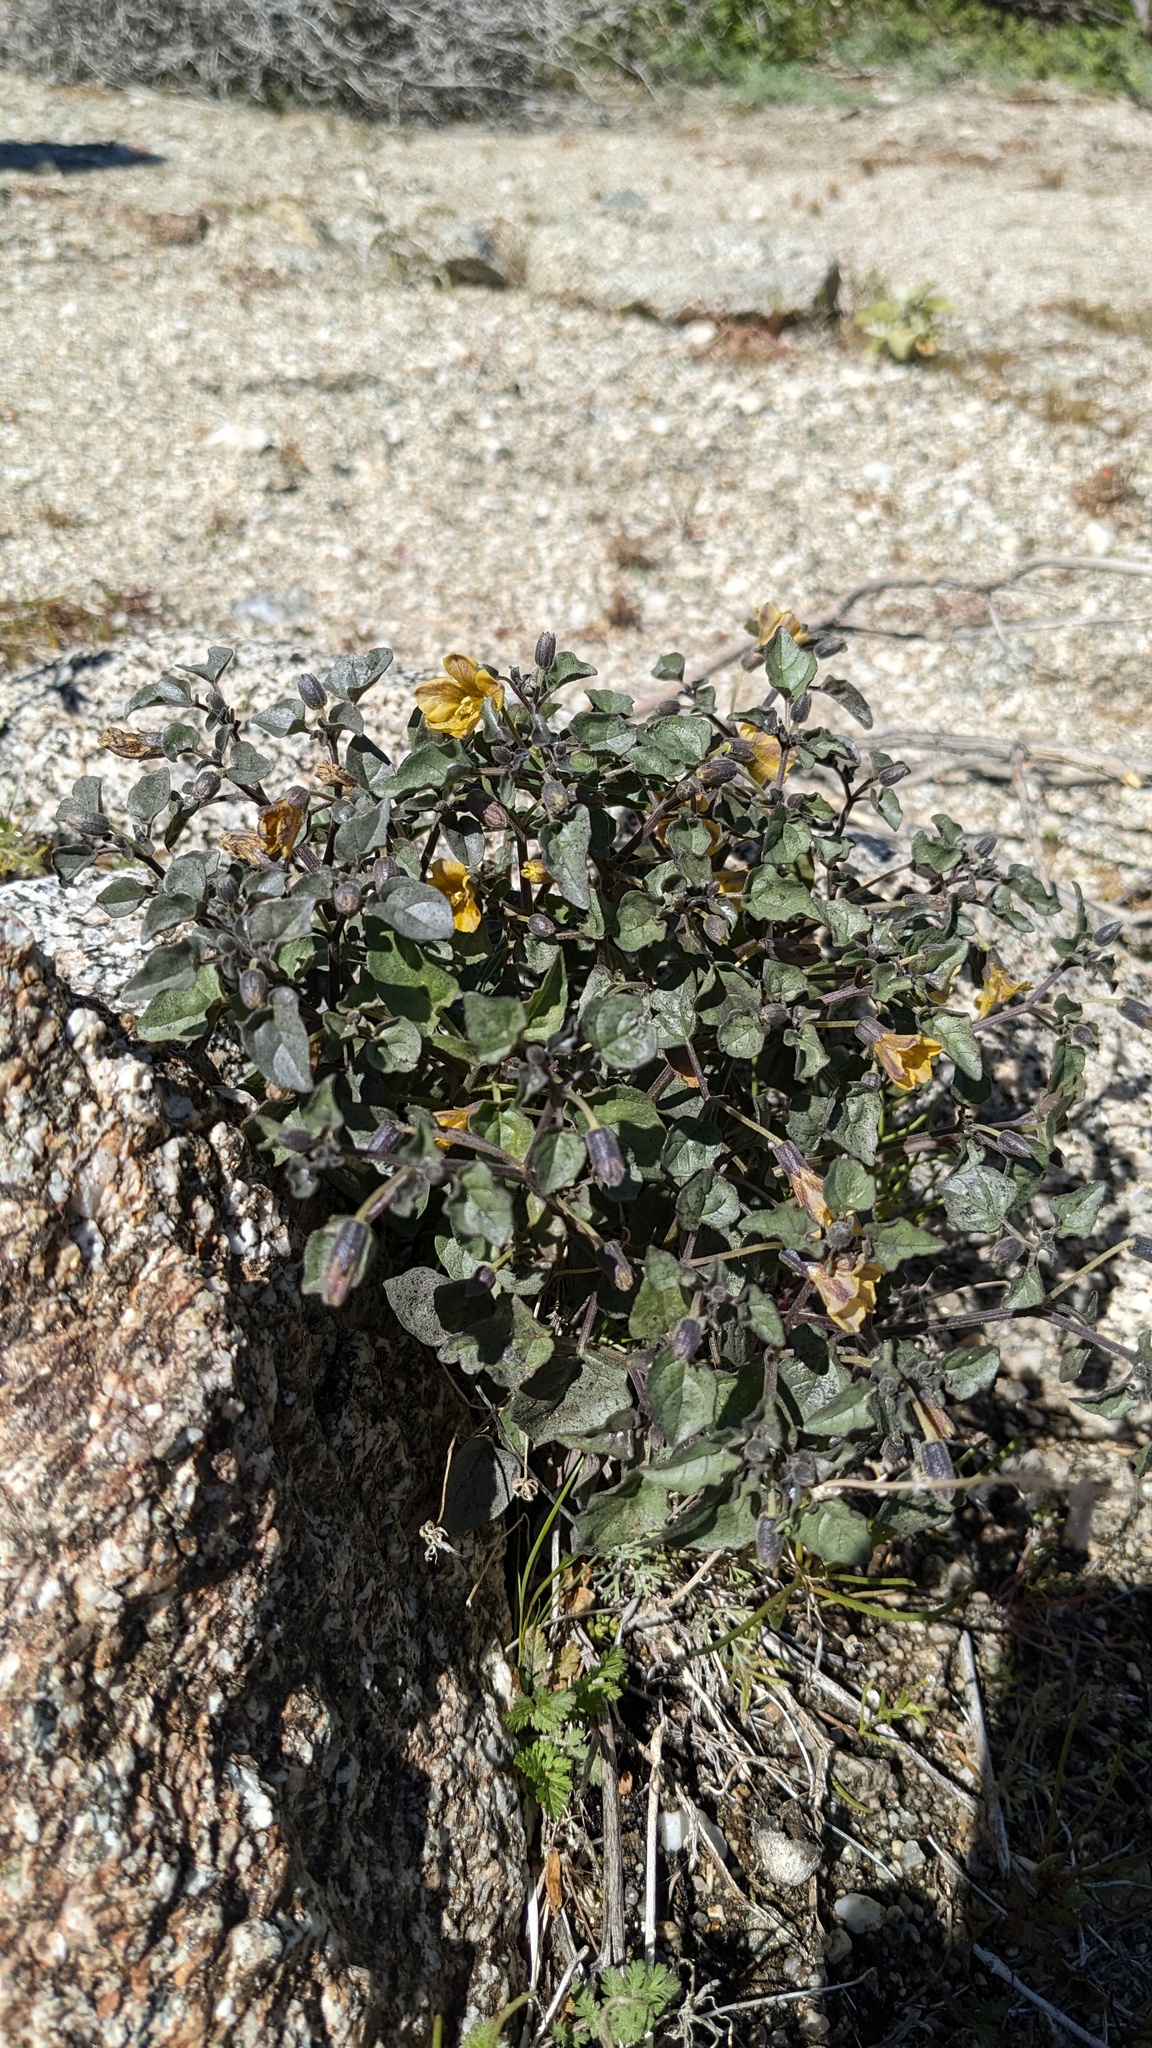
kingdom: Plantae
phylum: Tracheophyta
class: Magnoliopsida
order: Solanales
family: Solanaceae
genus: Physalis
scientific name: Physalis crassifolia
